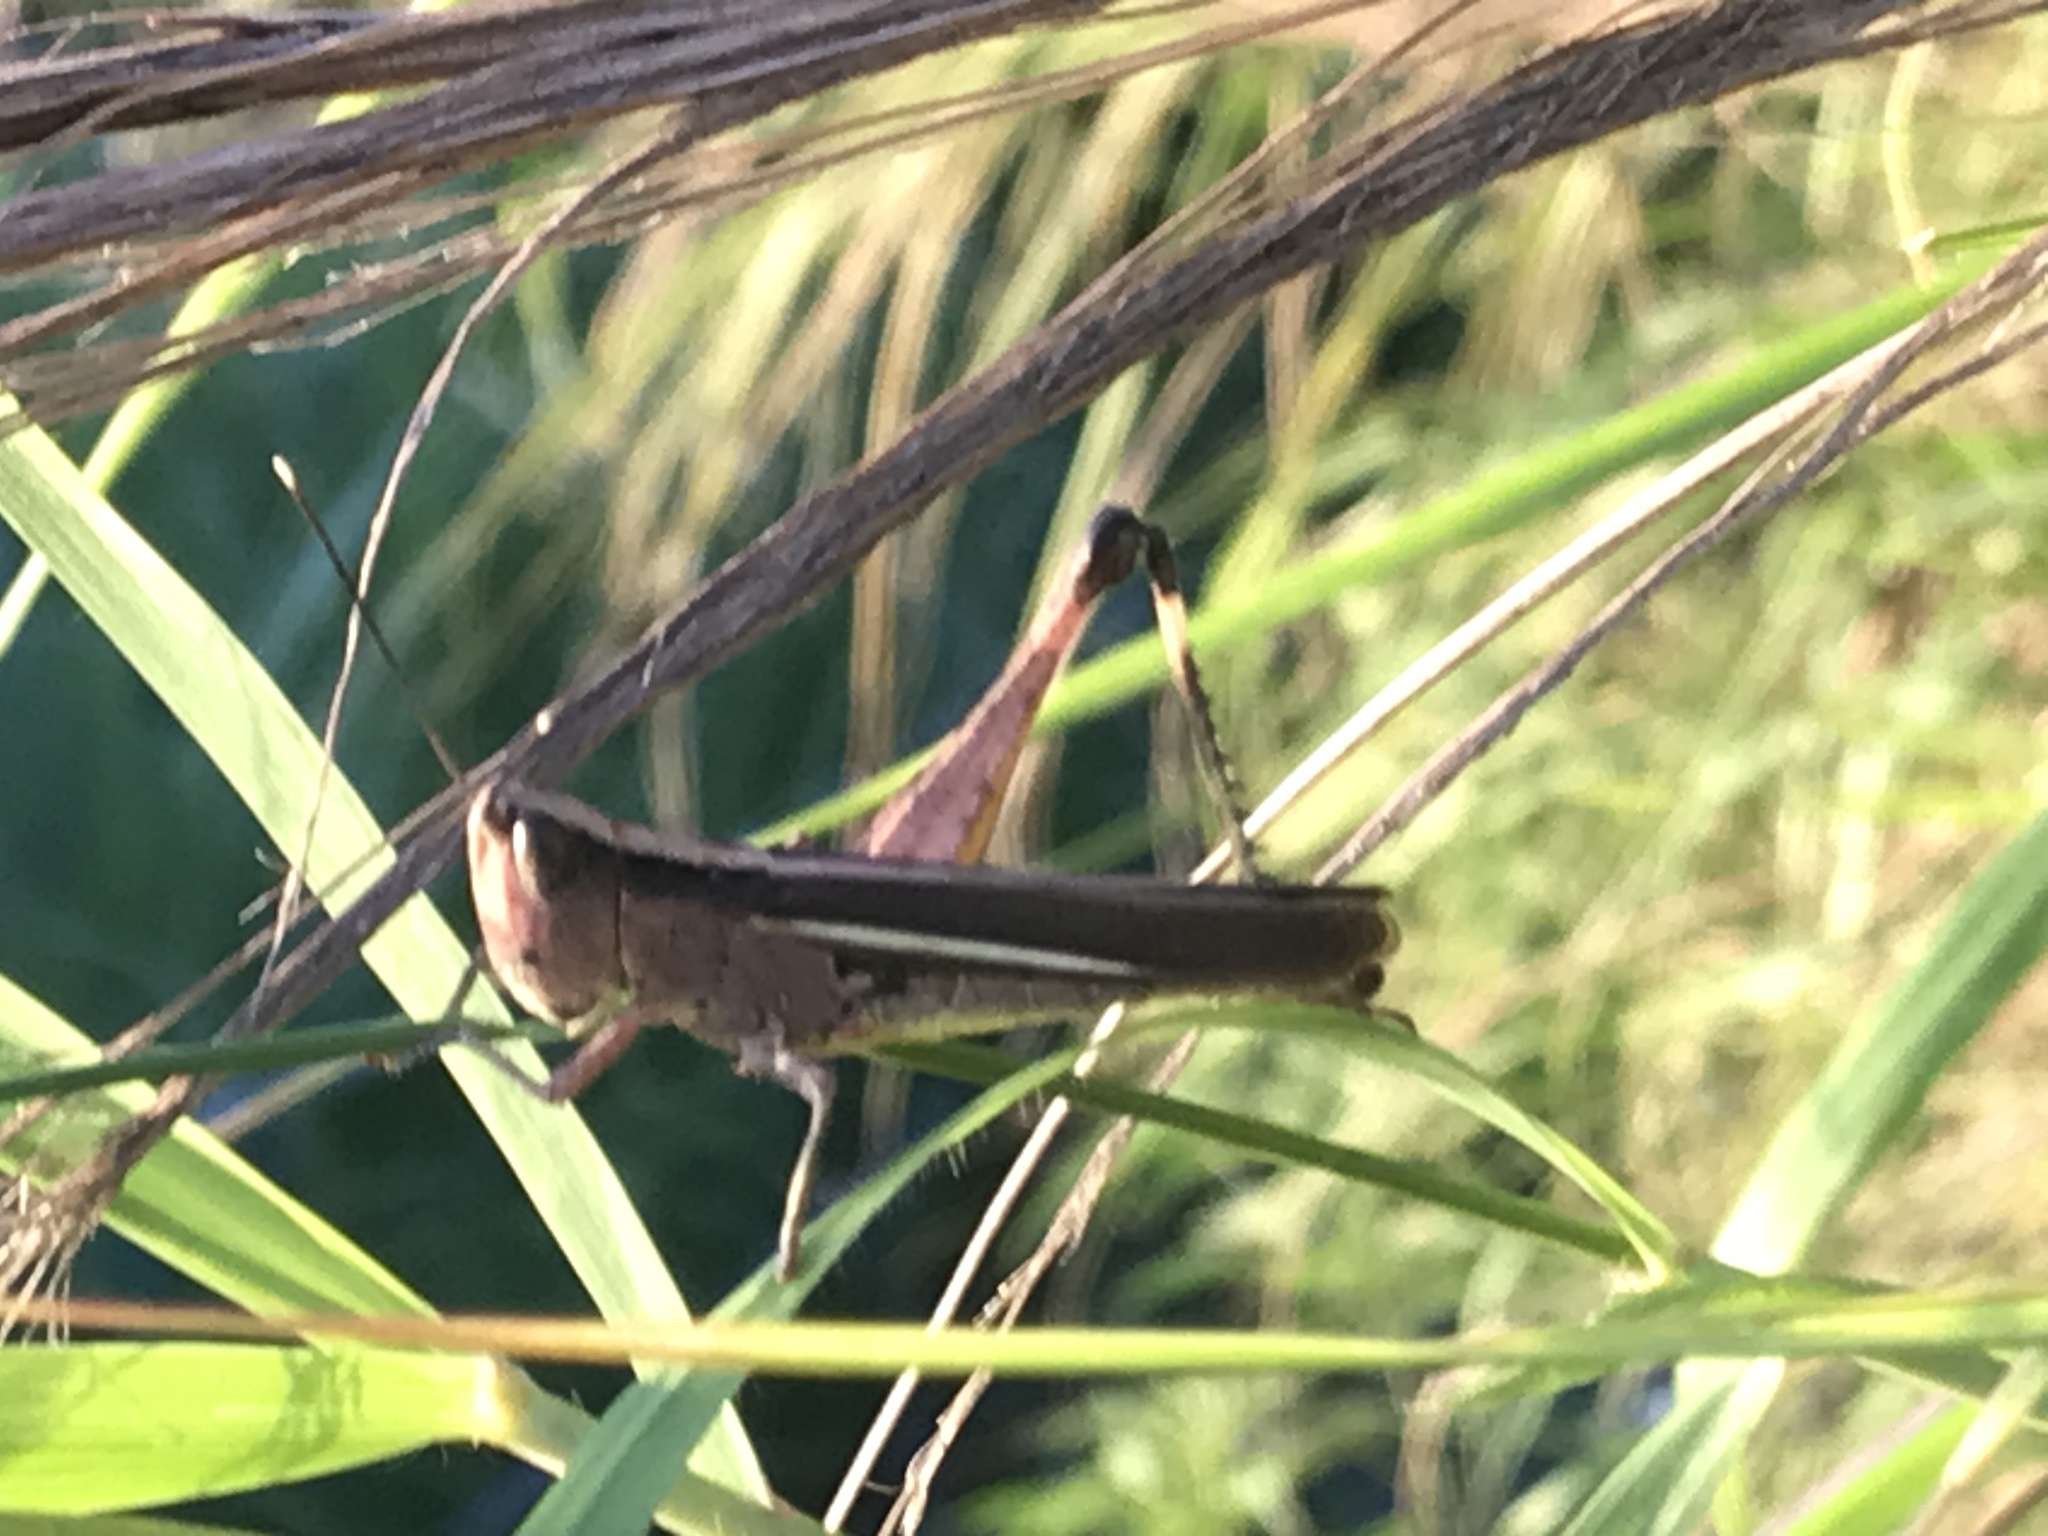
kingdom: Animalia
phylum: Arthropoda
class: Insecta
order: Orthoptera
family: Acrididae
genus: Ceracris
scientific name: Ceracris fasciata
